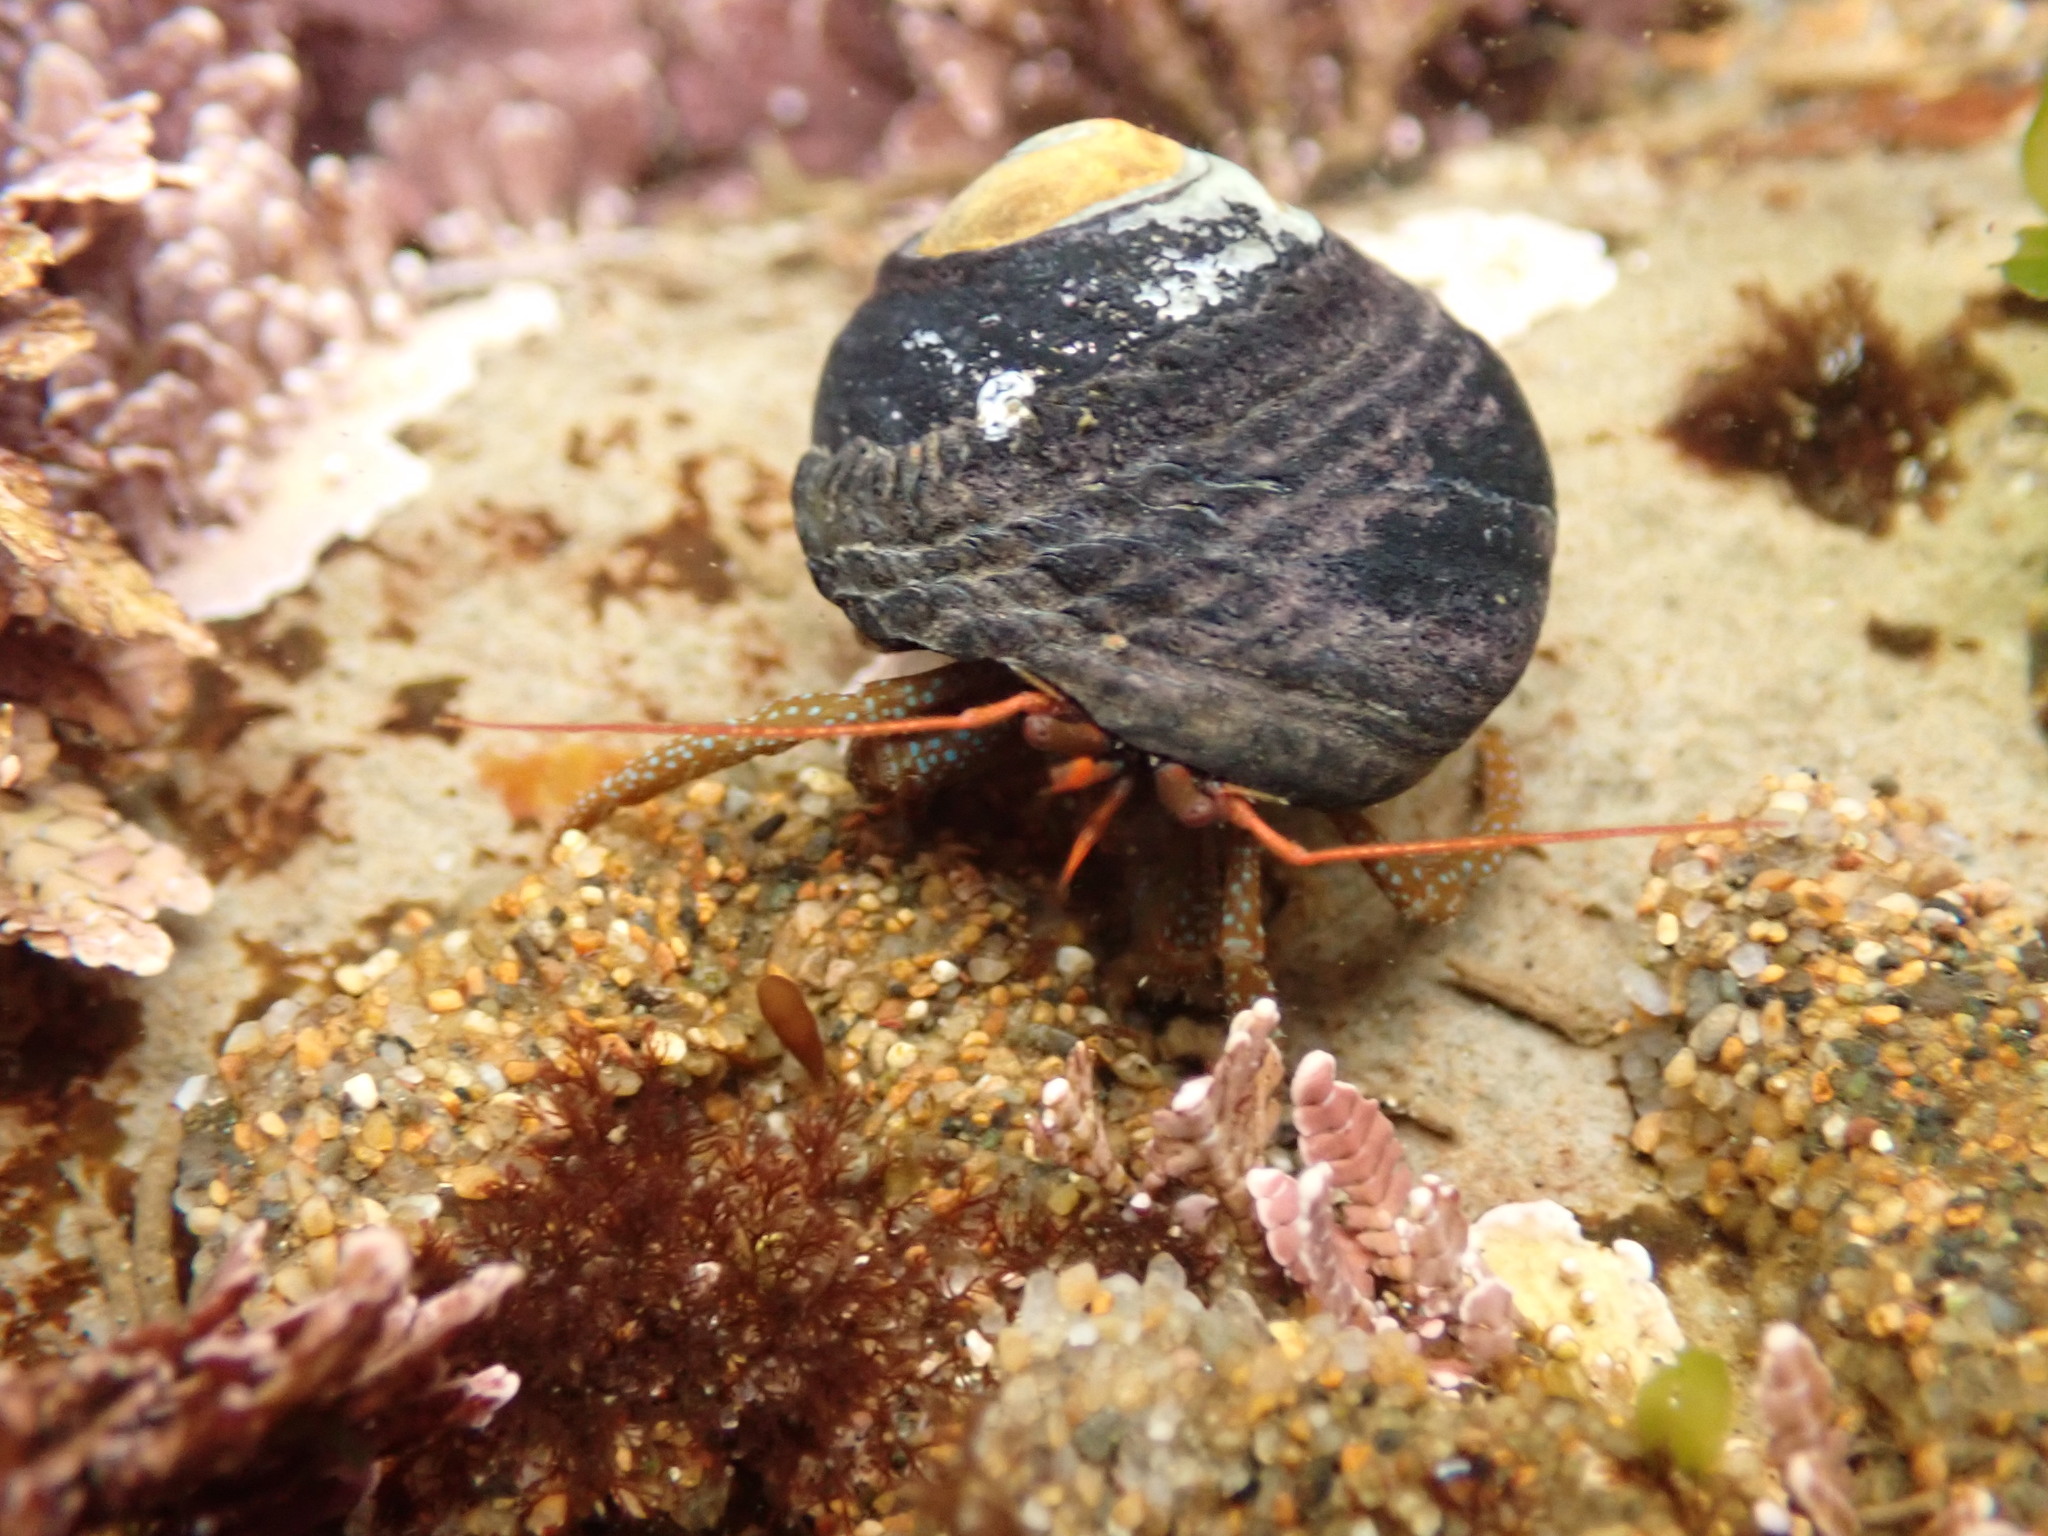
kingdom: Animalia
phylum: Arthropoda
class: Malacostraca
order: Decapoda
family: Paguridae
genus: Pagurus
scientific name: Pagurus granosimanus
